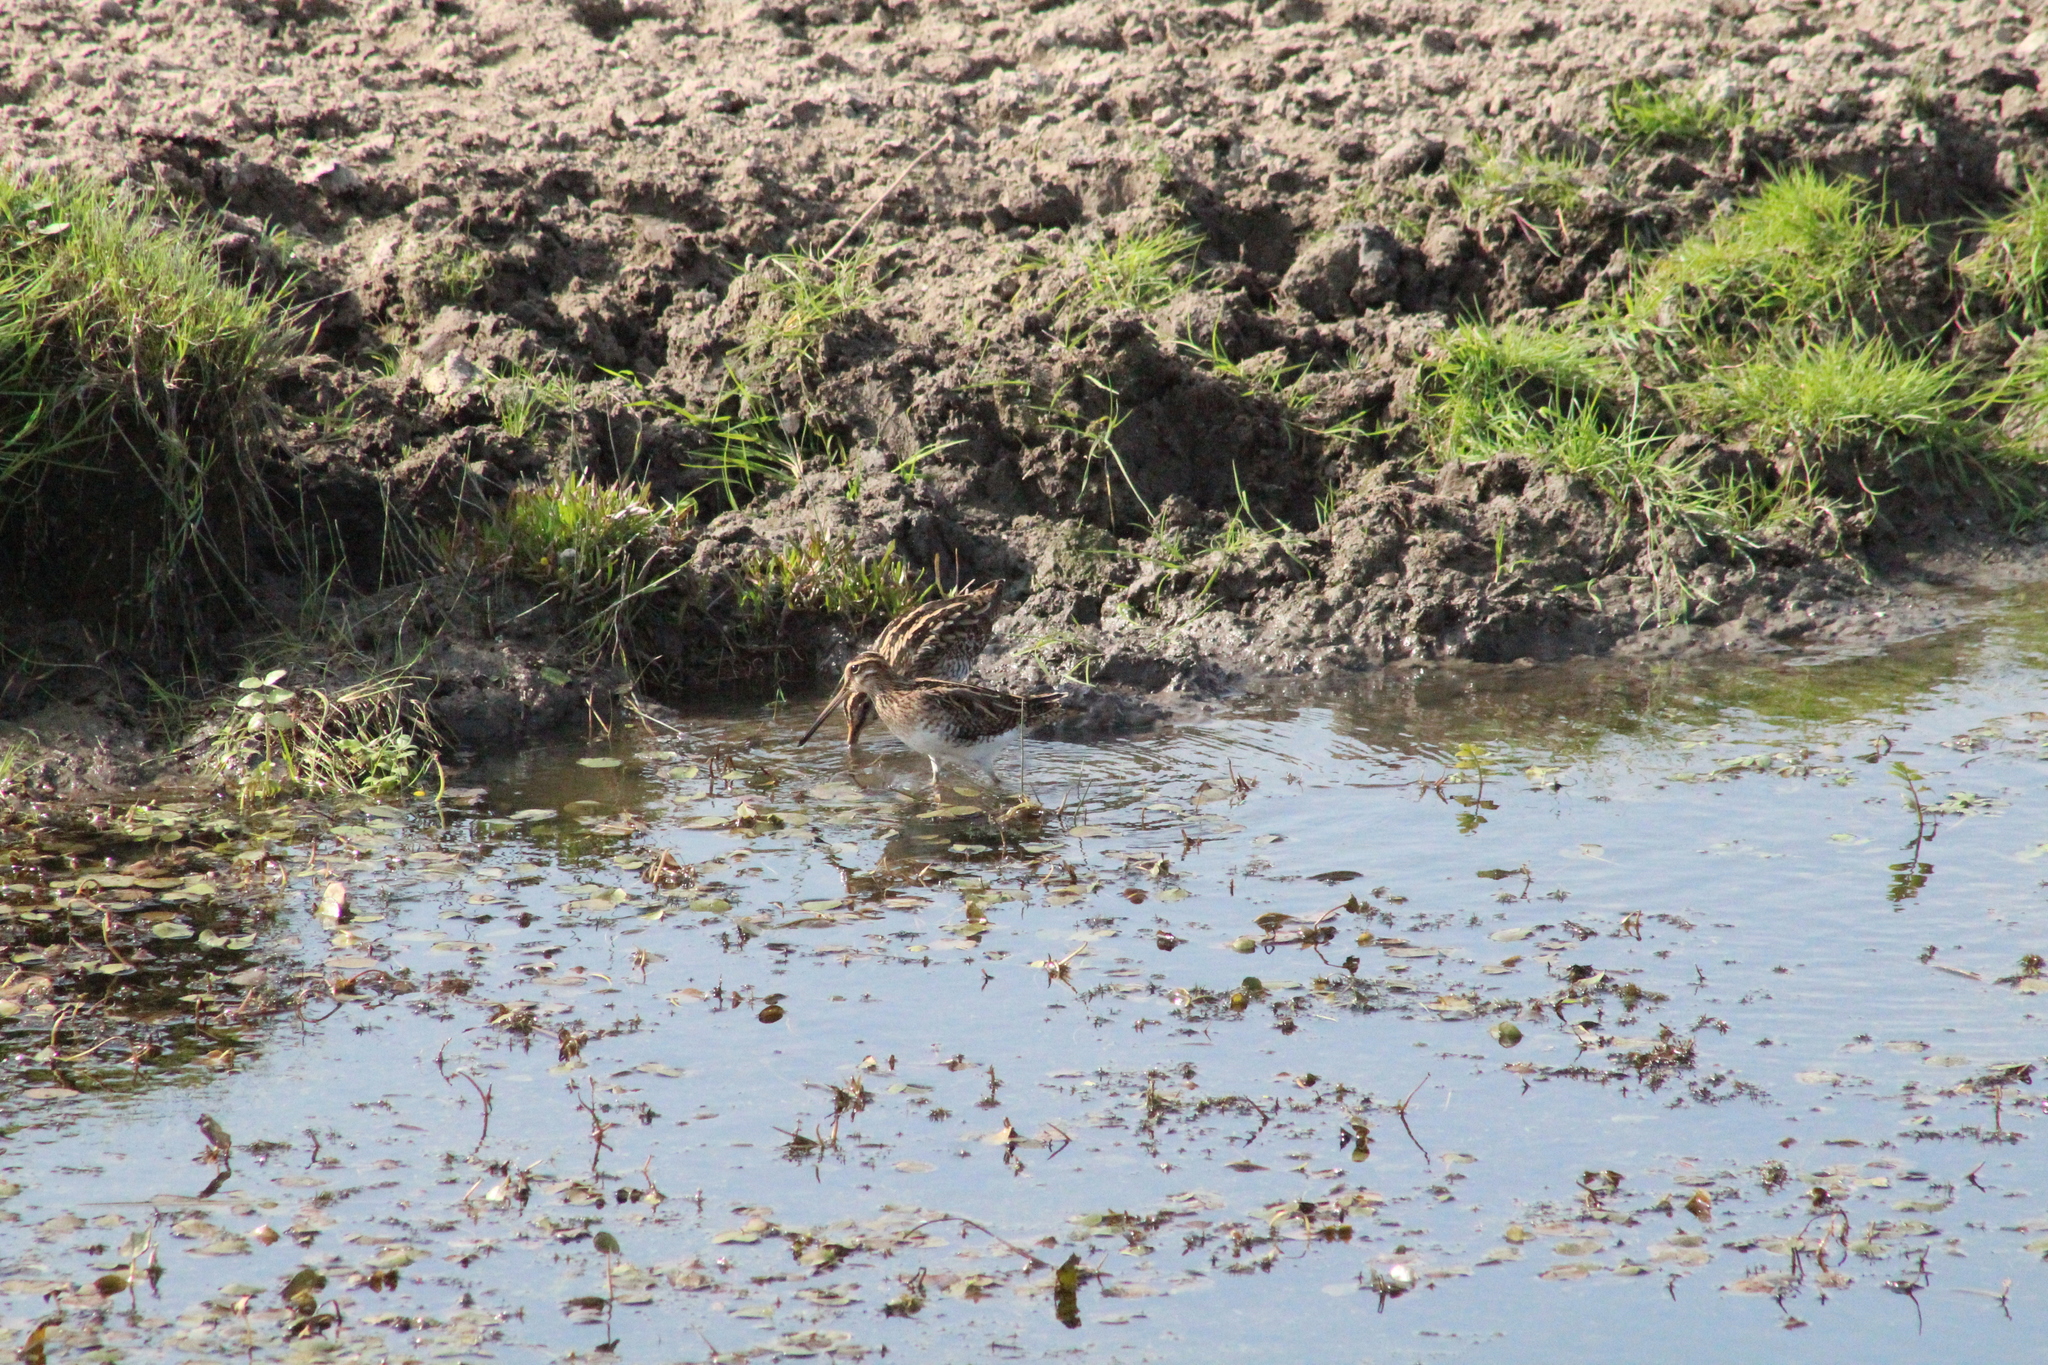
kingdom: Animalia
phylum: Chordata
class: Aves
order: Charadriiformes
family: Scolopacidae
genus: Gallinago
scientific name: Gallinago gallinago
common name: Common snipe
